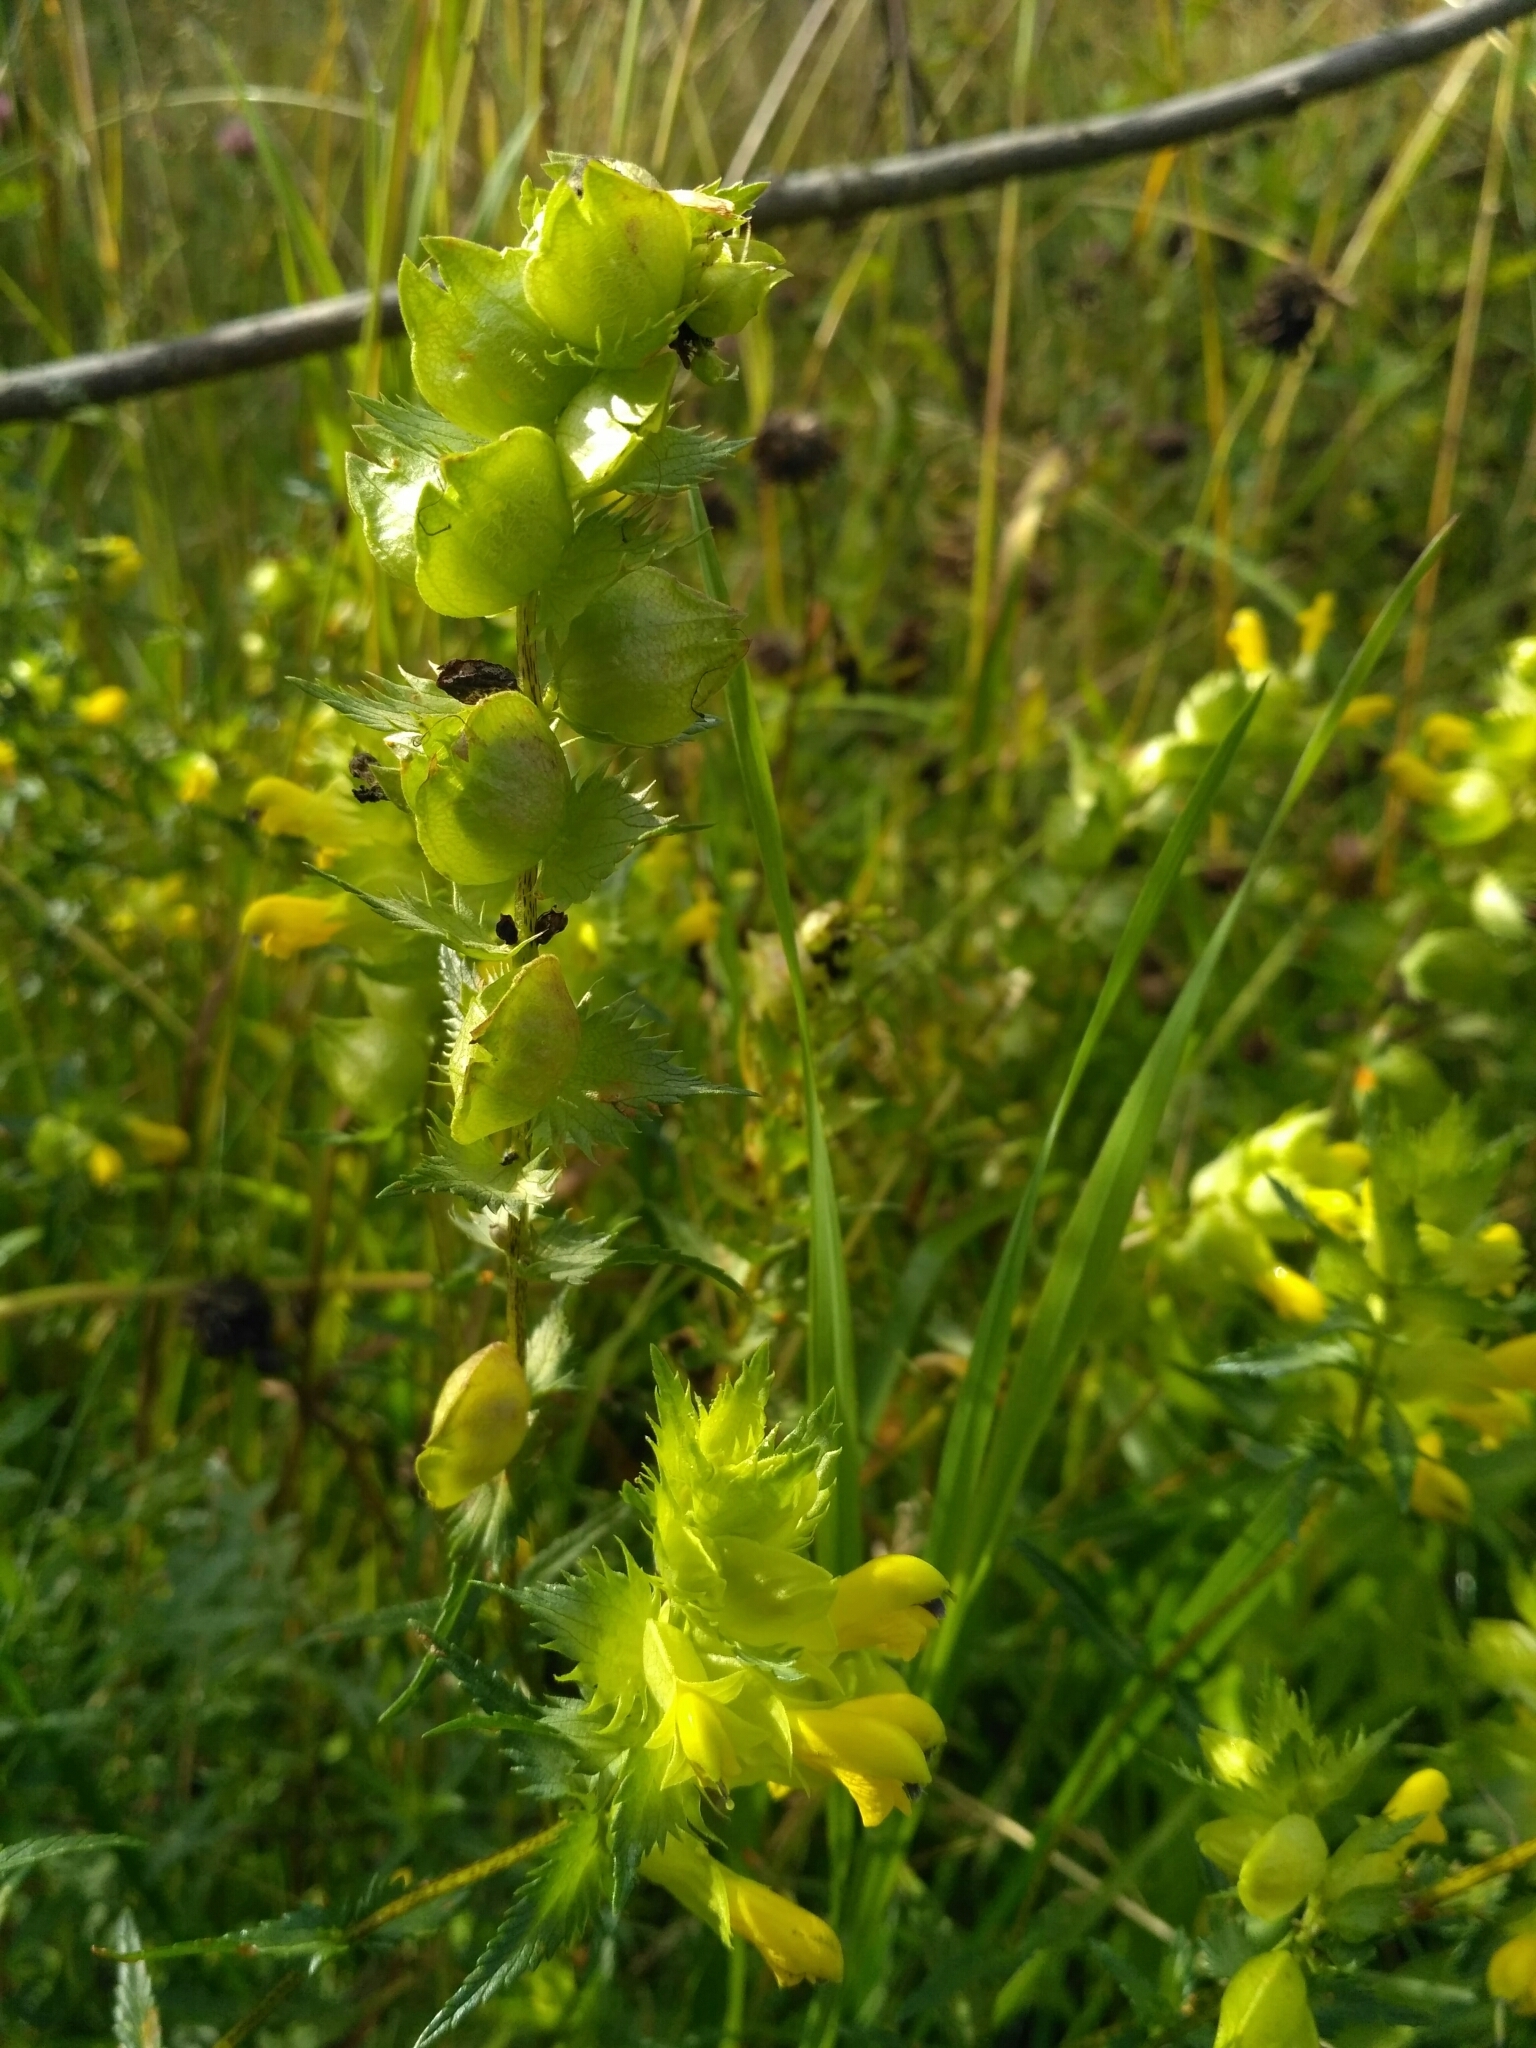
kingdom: Plantae
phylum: Tracheophyta
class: Magnoliopsida
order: Lamiales
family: Orobanchaceae
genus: Rhinanthus
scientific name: Rhinanthus serotinus
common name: Late-flowering yellow rattle
